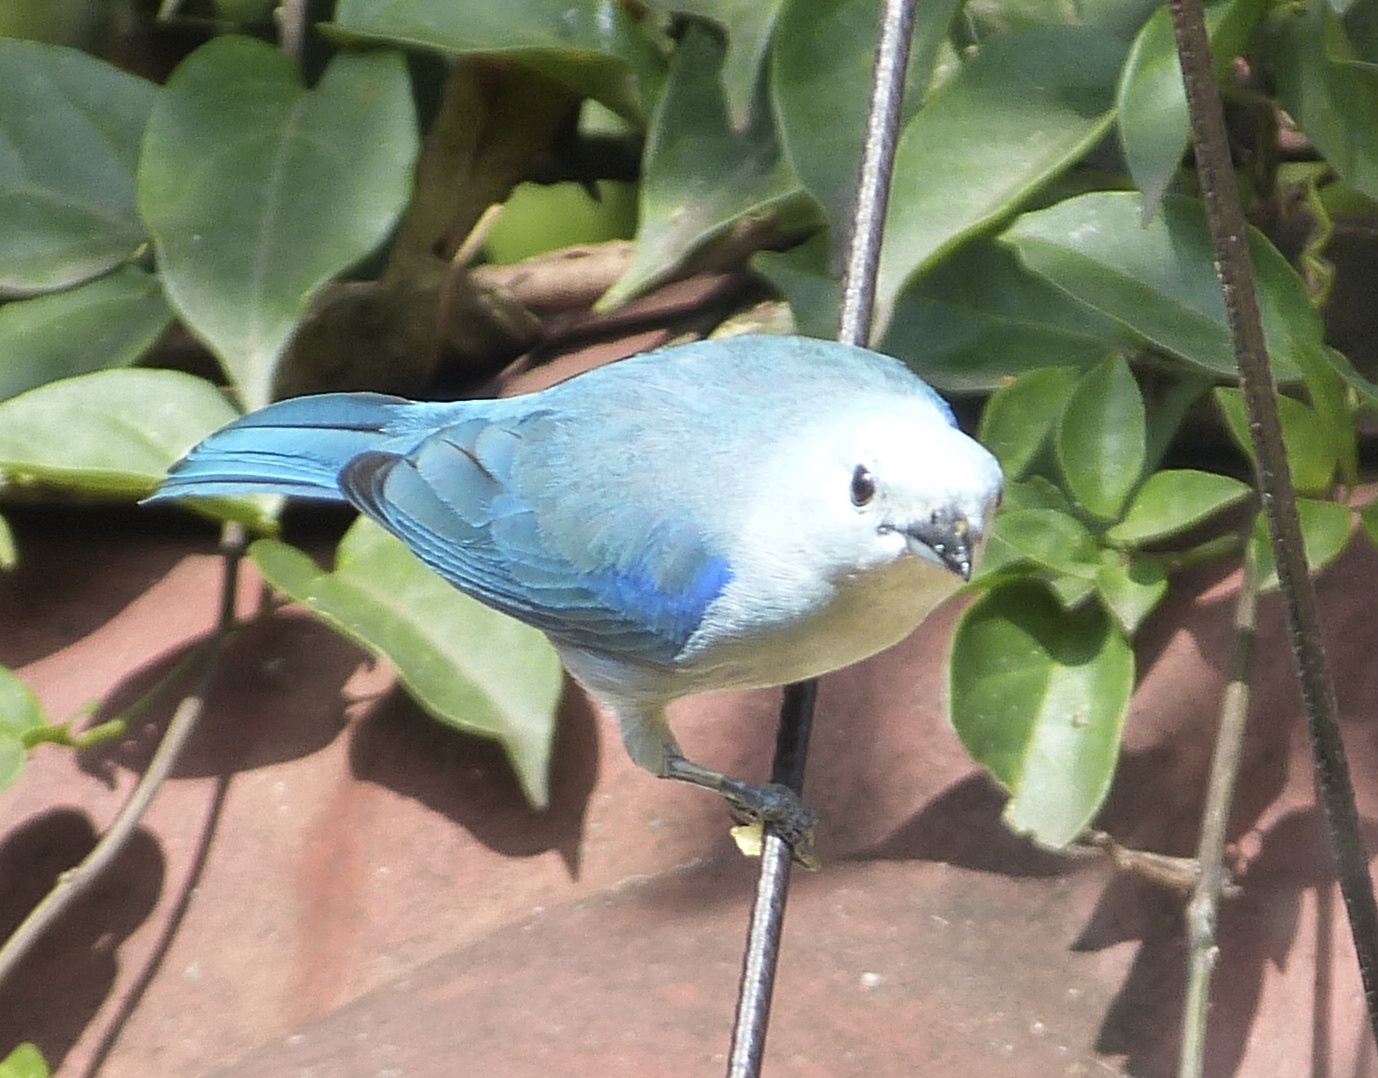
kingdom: Animalia
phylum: Chordata
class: Aves
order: Passeriformes
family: Thraupidae
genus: Thraupis
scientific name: Thraupis episcopus
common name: Blue-grey tanager
